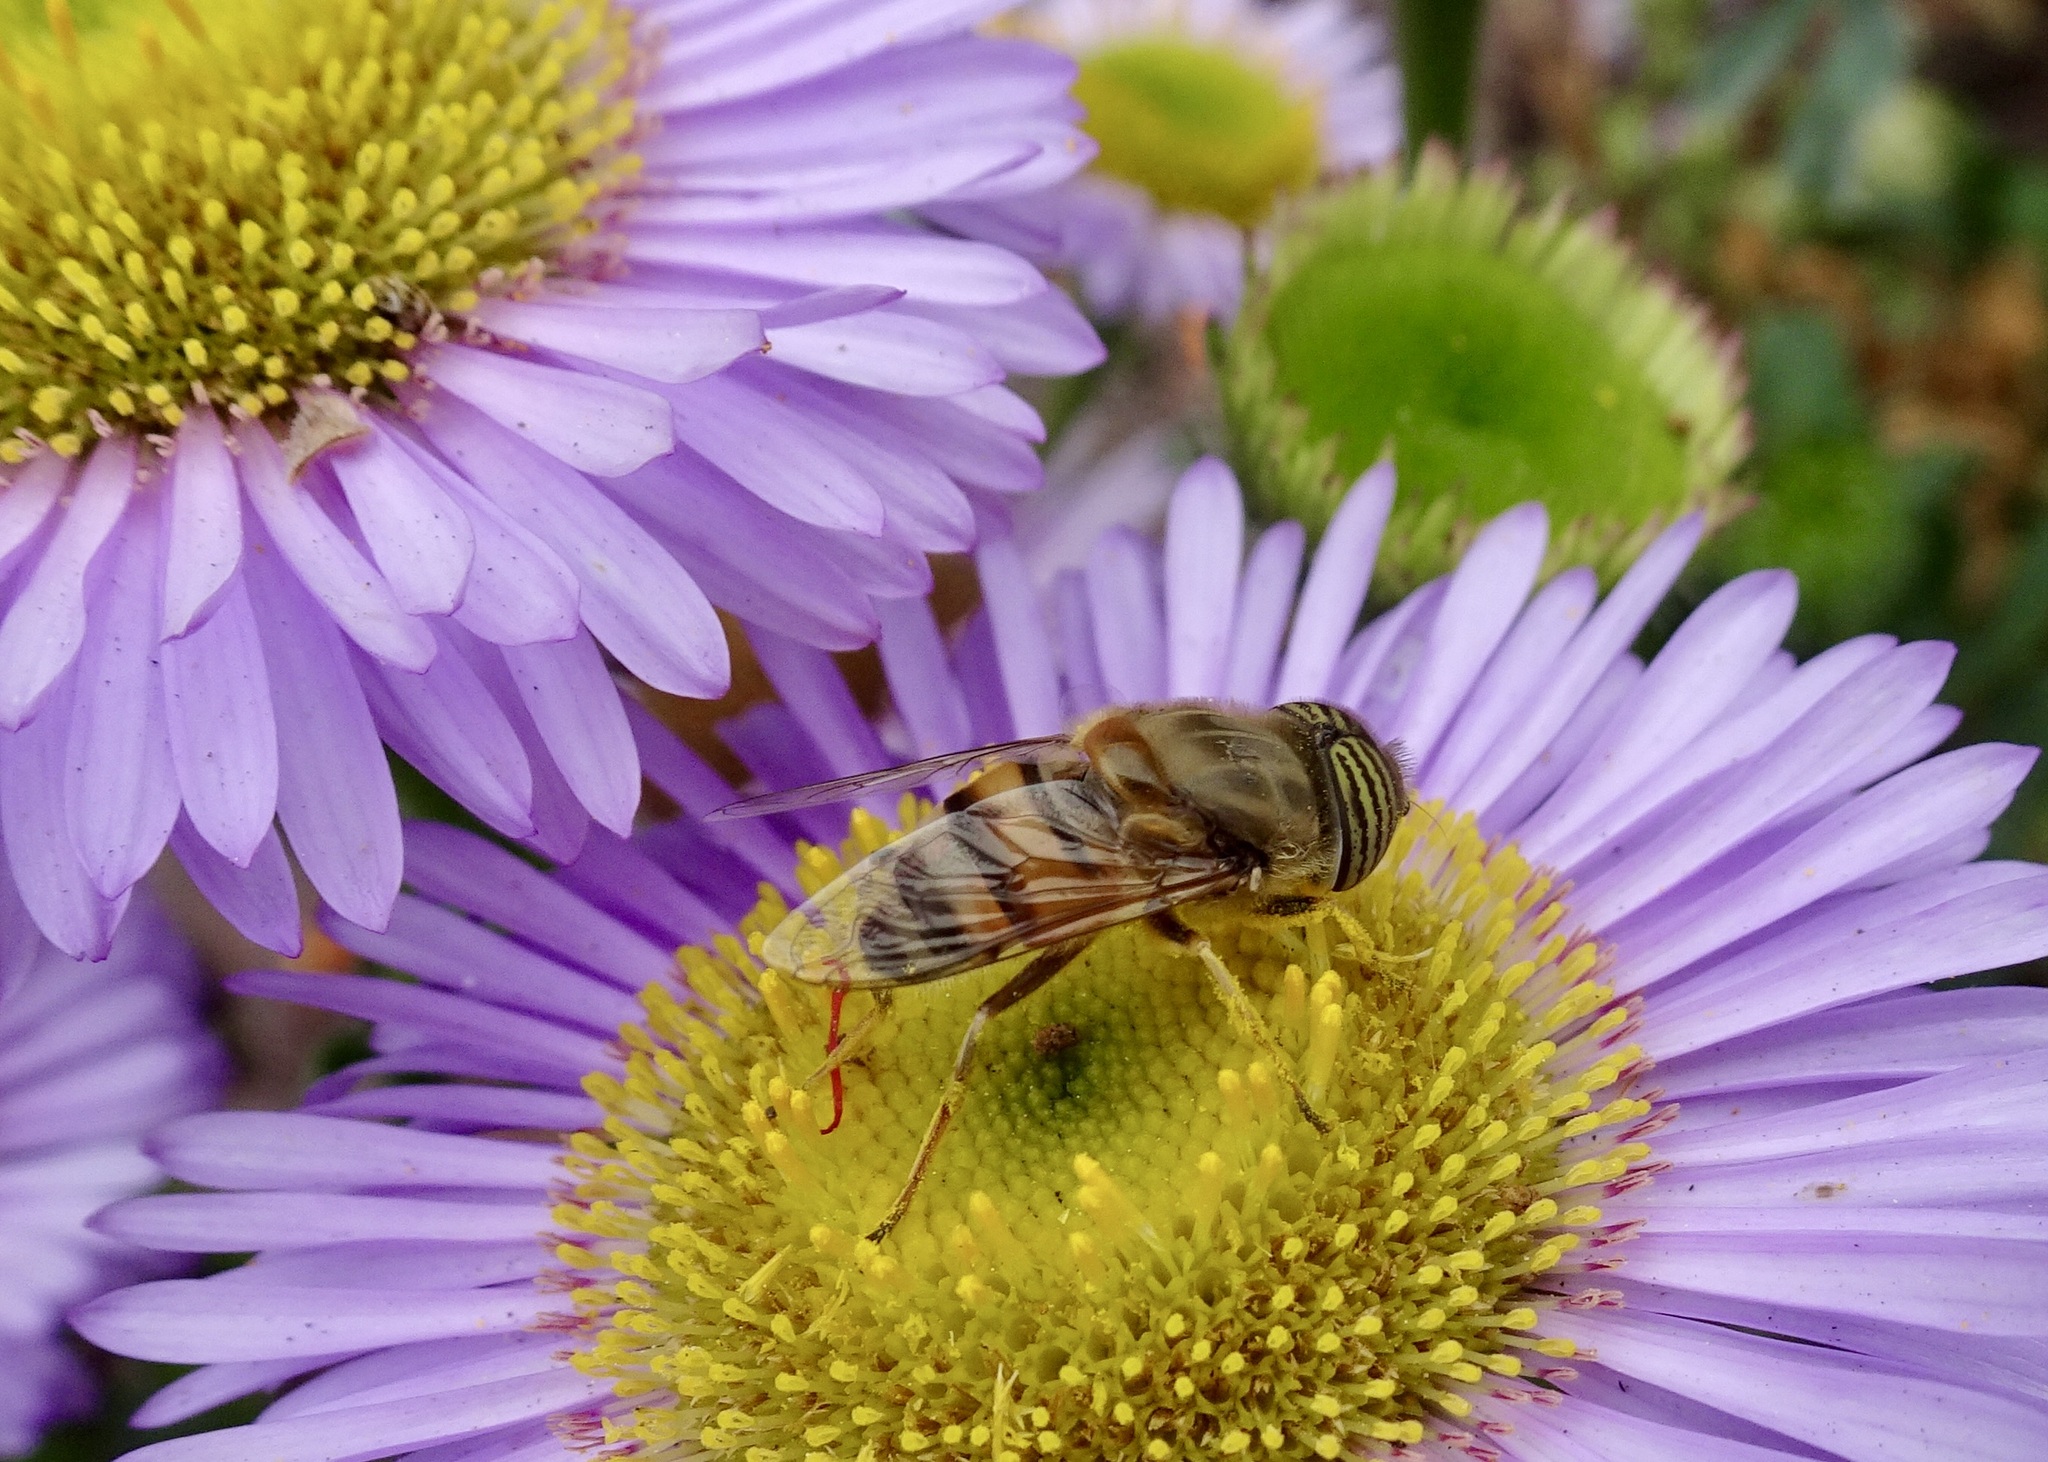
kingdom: Animalia
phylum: Arthropoda
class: Insecta
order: Diptera
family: Syrphidae
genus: Eristalinus
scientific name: Eristalinus taeniops
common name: Syrphid fly
